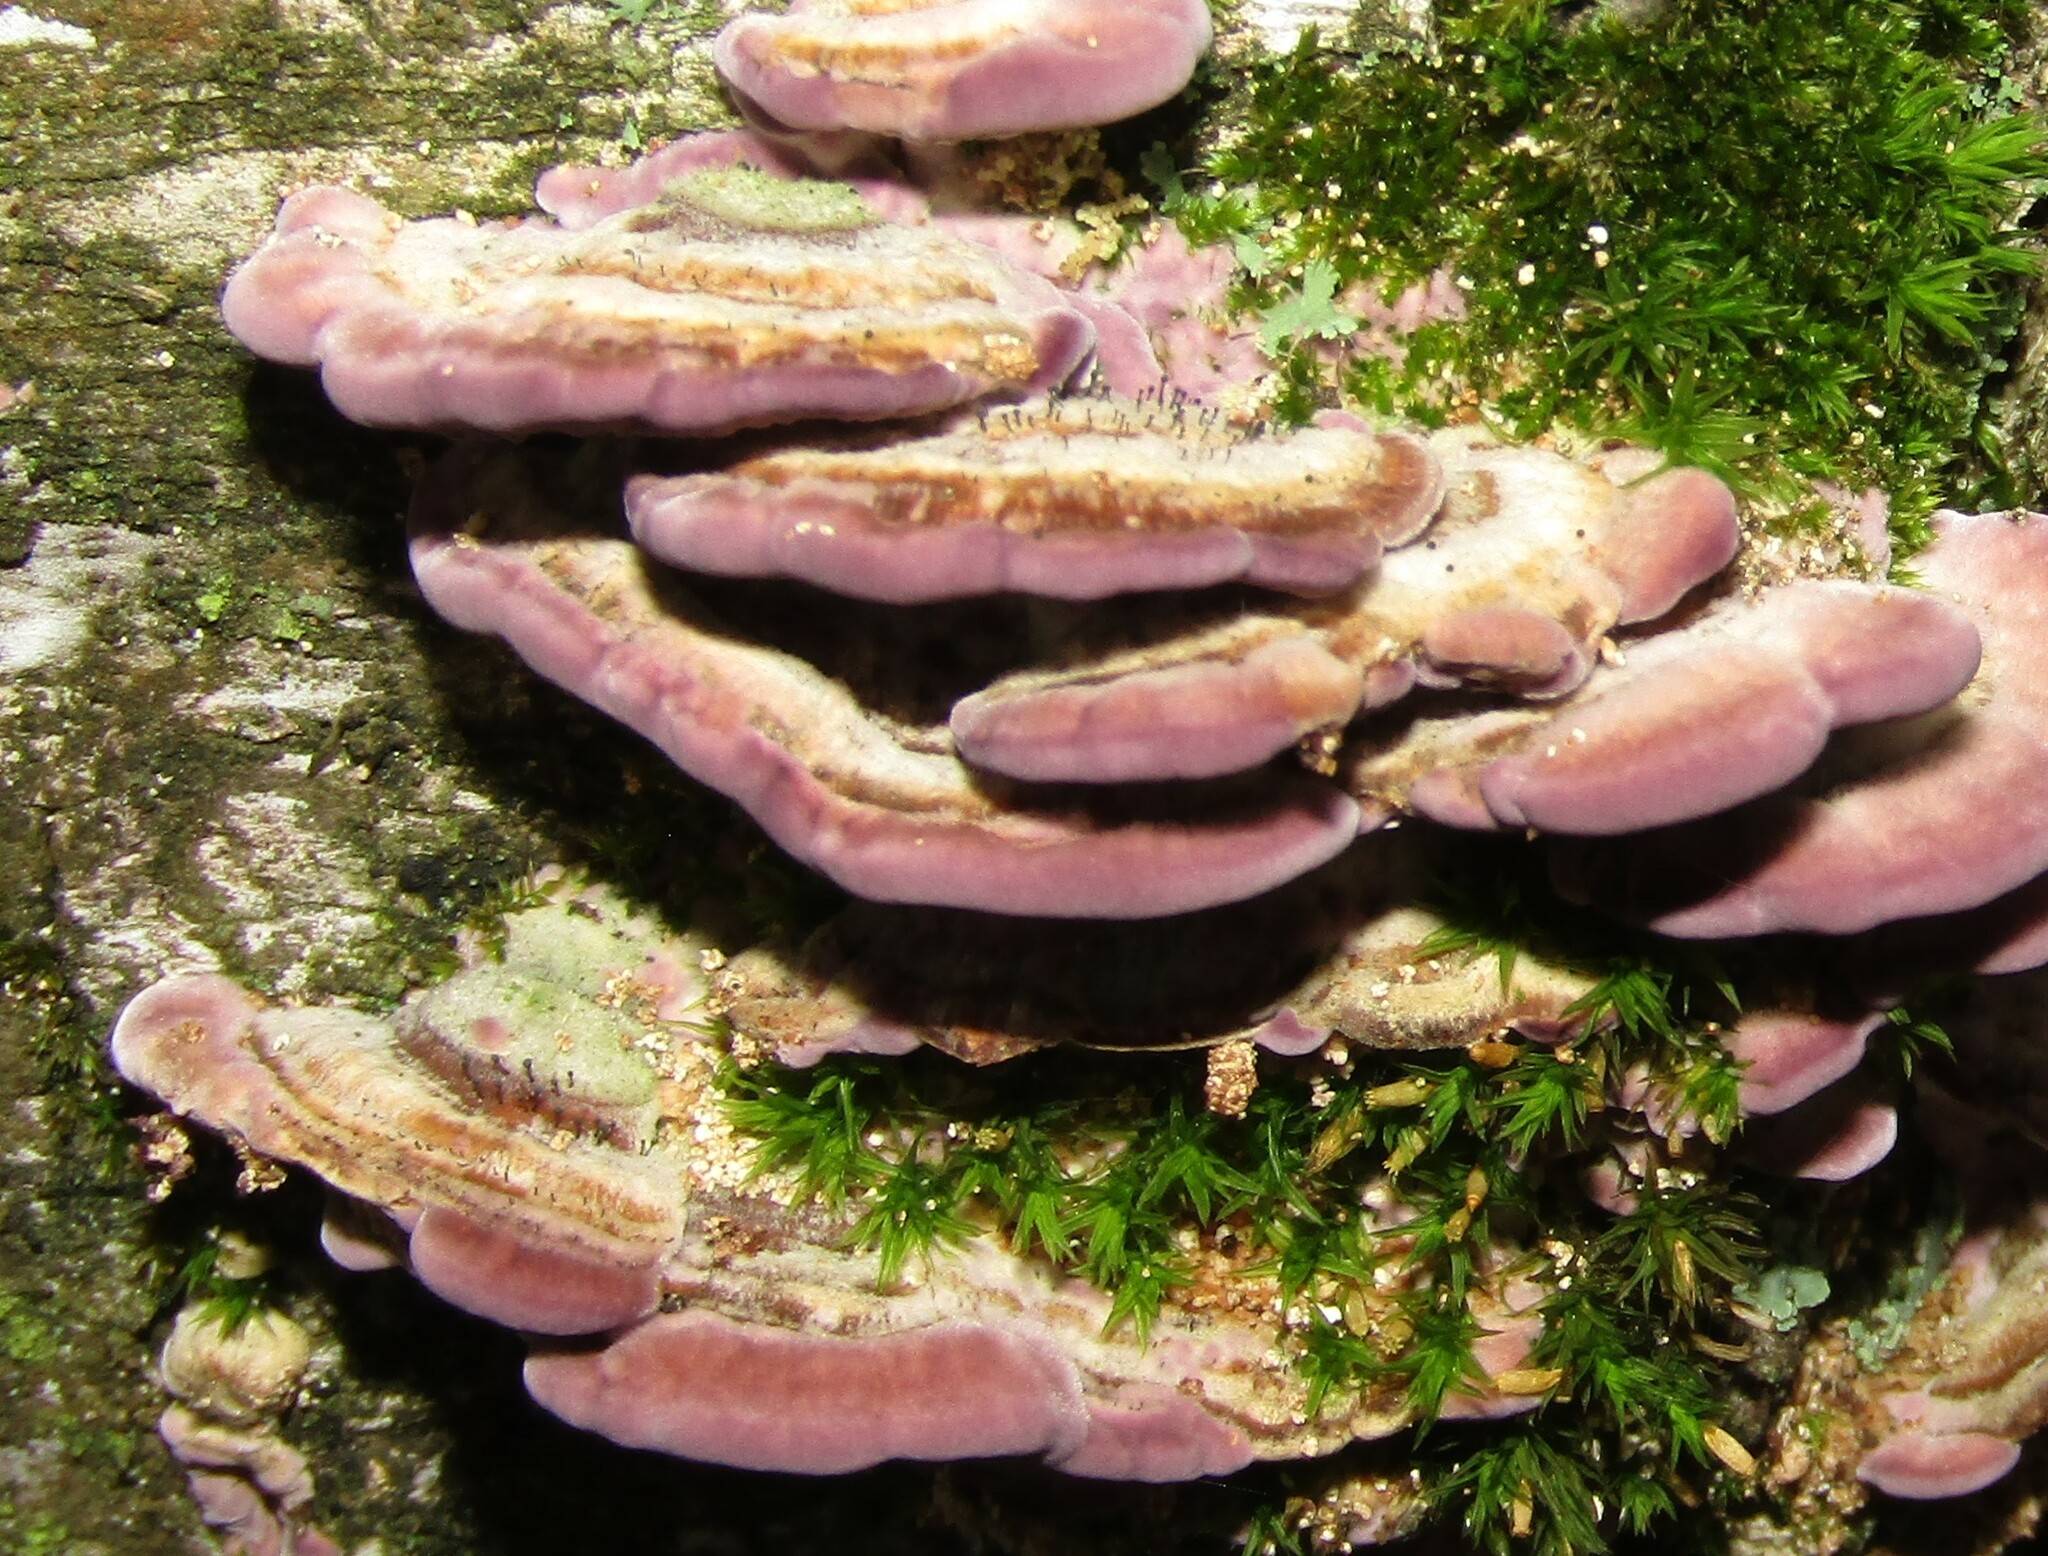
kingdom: Fungi
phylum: Ascomycota
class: Eurotiomycetes
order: Mycocaliciales
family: Mycocaliciaceae
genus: Phaeocalicium
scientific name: Phaeocalicium polyporaeum
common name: Fairy pins
